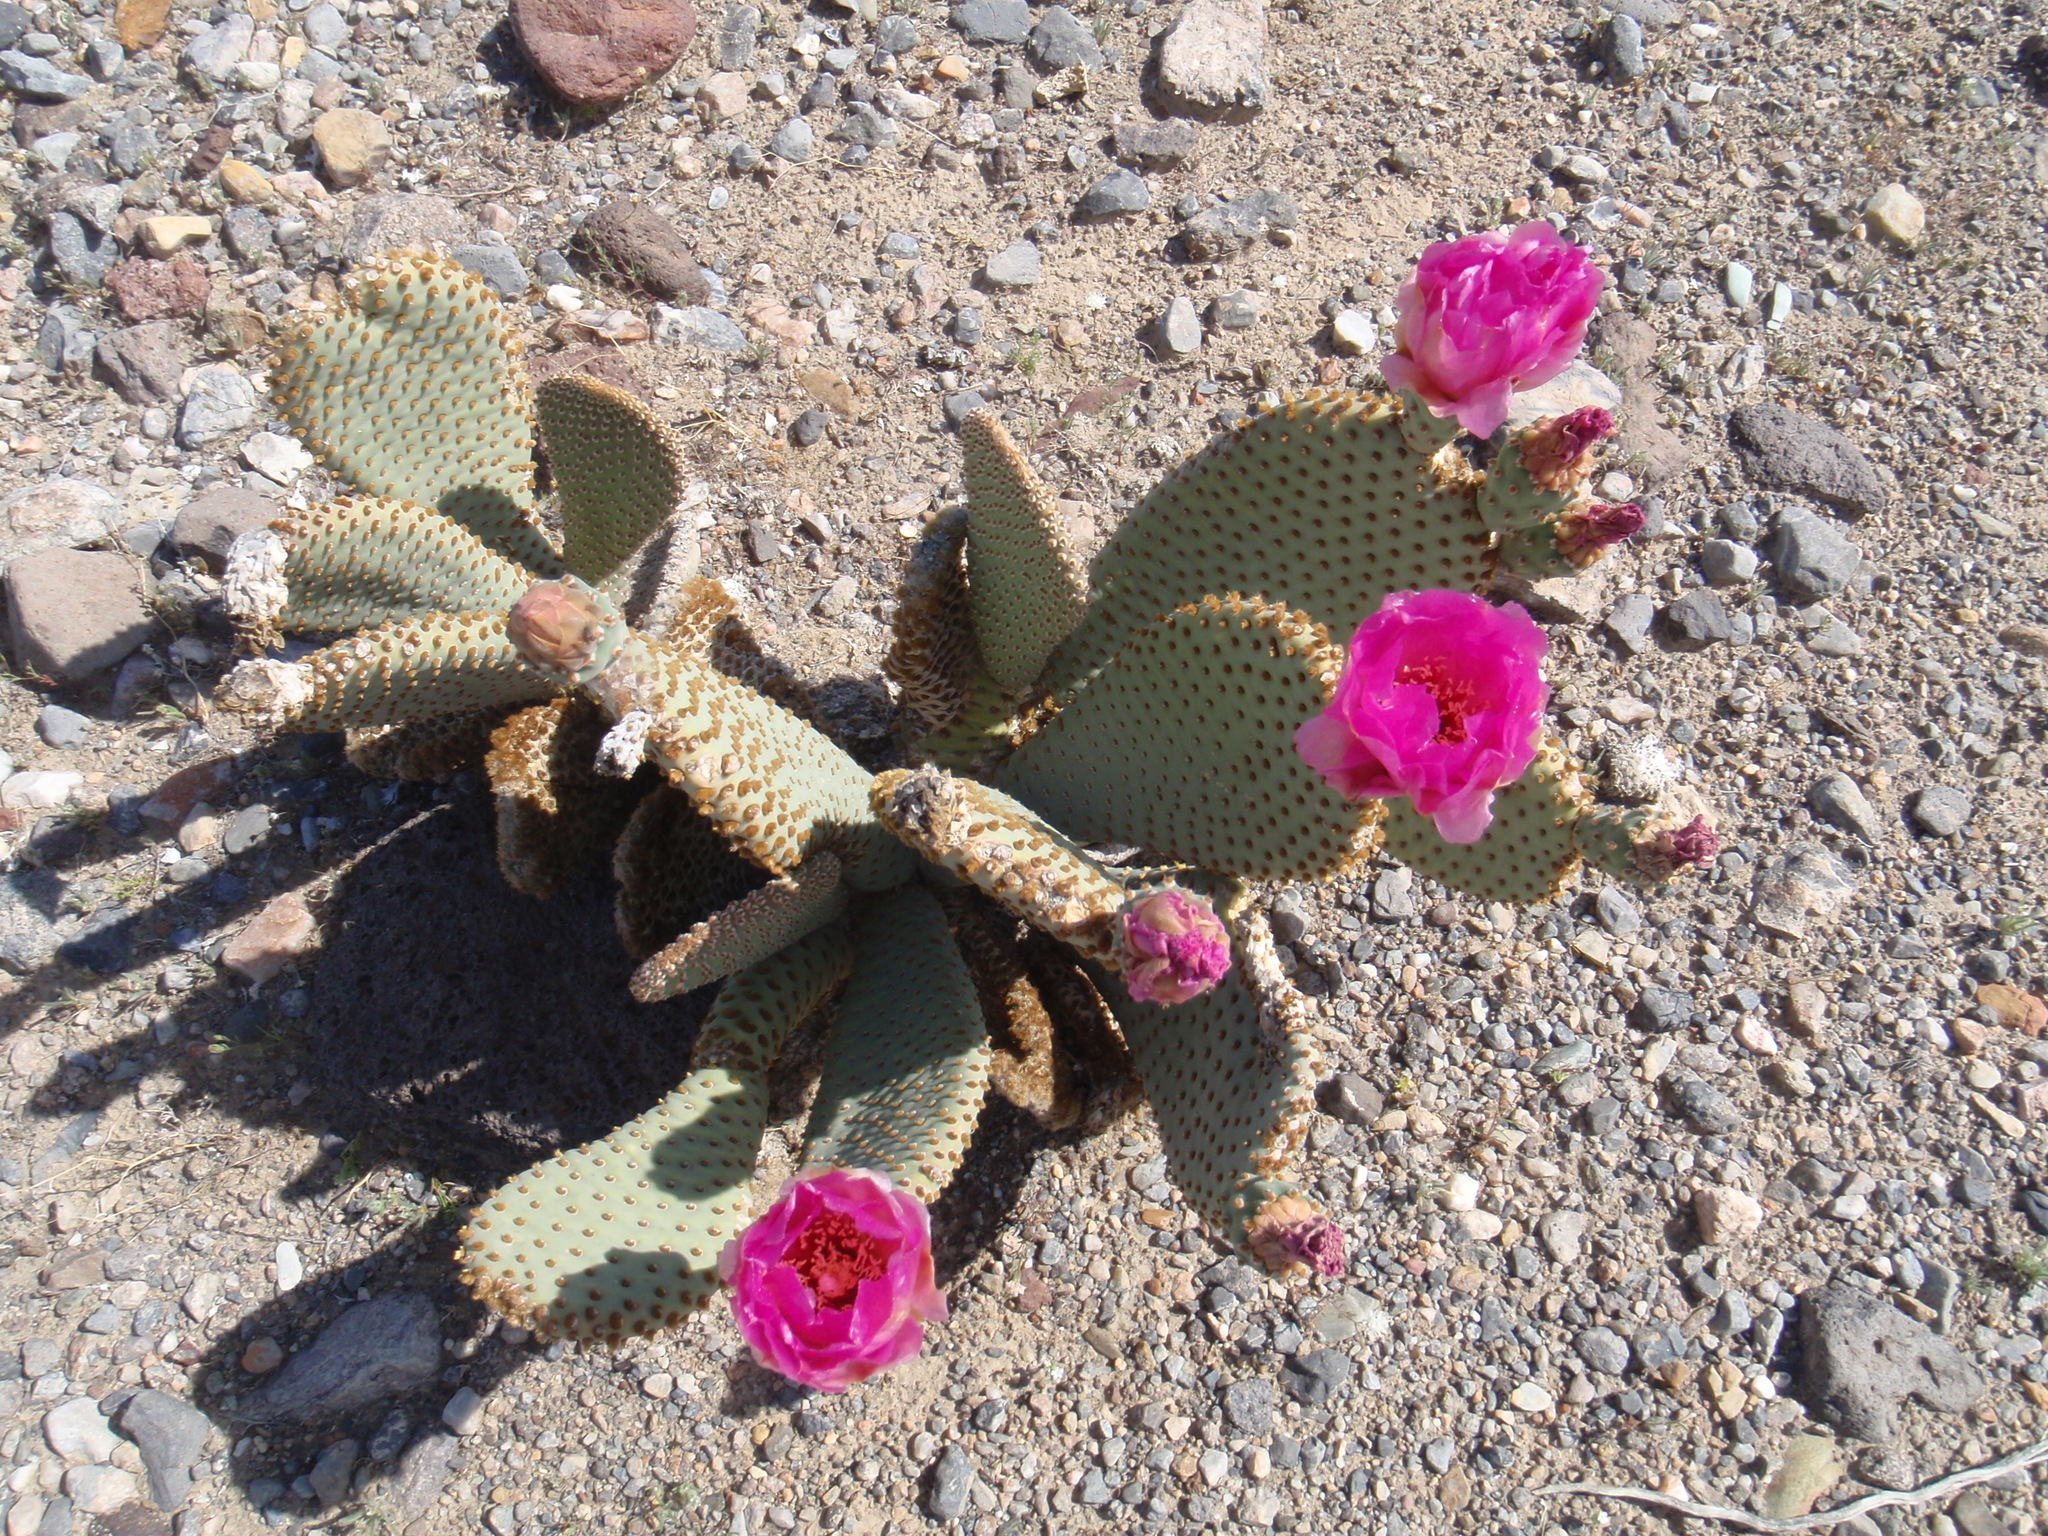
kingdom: Plantae
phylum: Tracheophyta
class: Magnoliopsida
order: Caryophyllales
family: Cactaceae
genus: Opuntia
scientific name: Opuntia basilaris
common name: Beavertail prickly-pear
